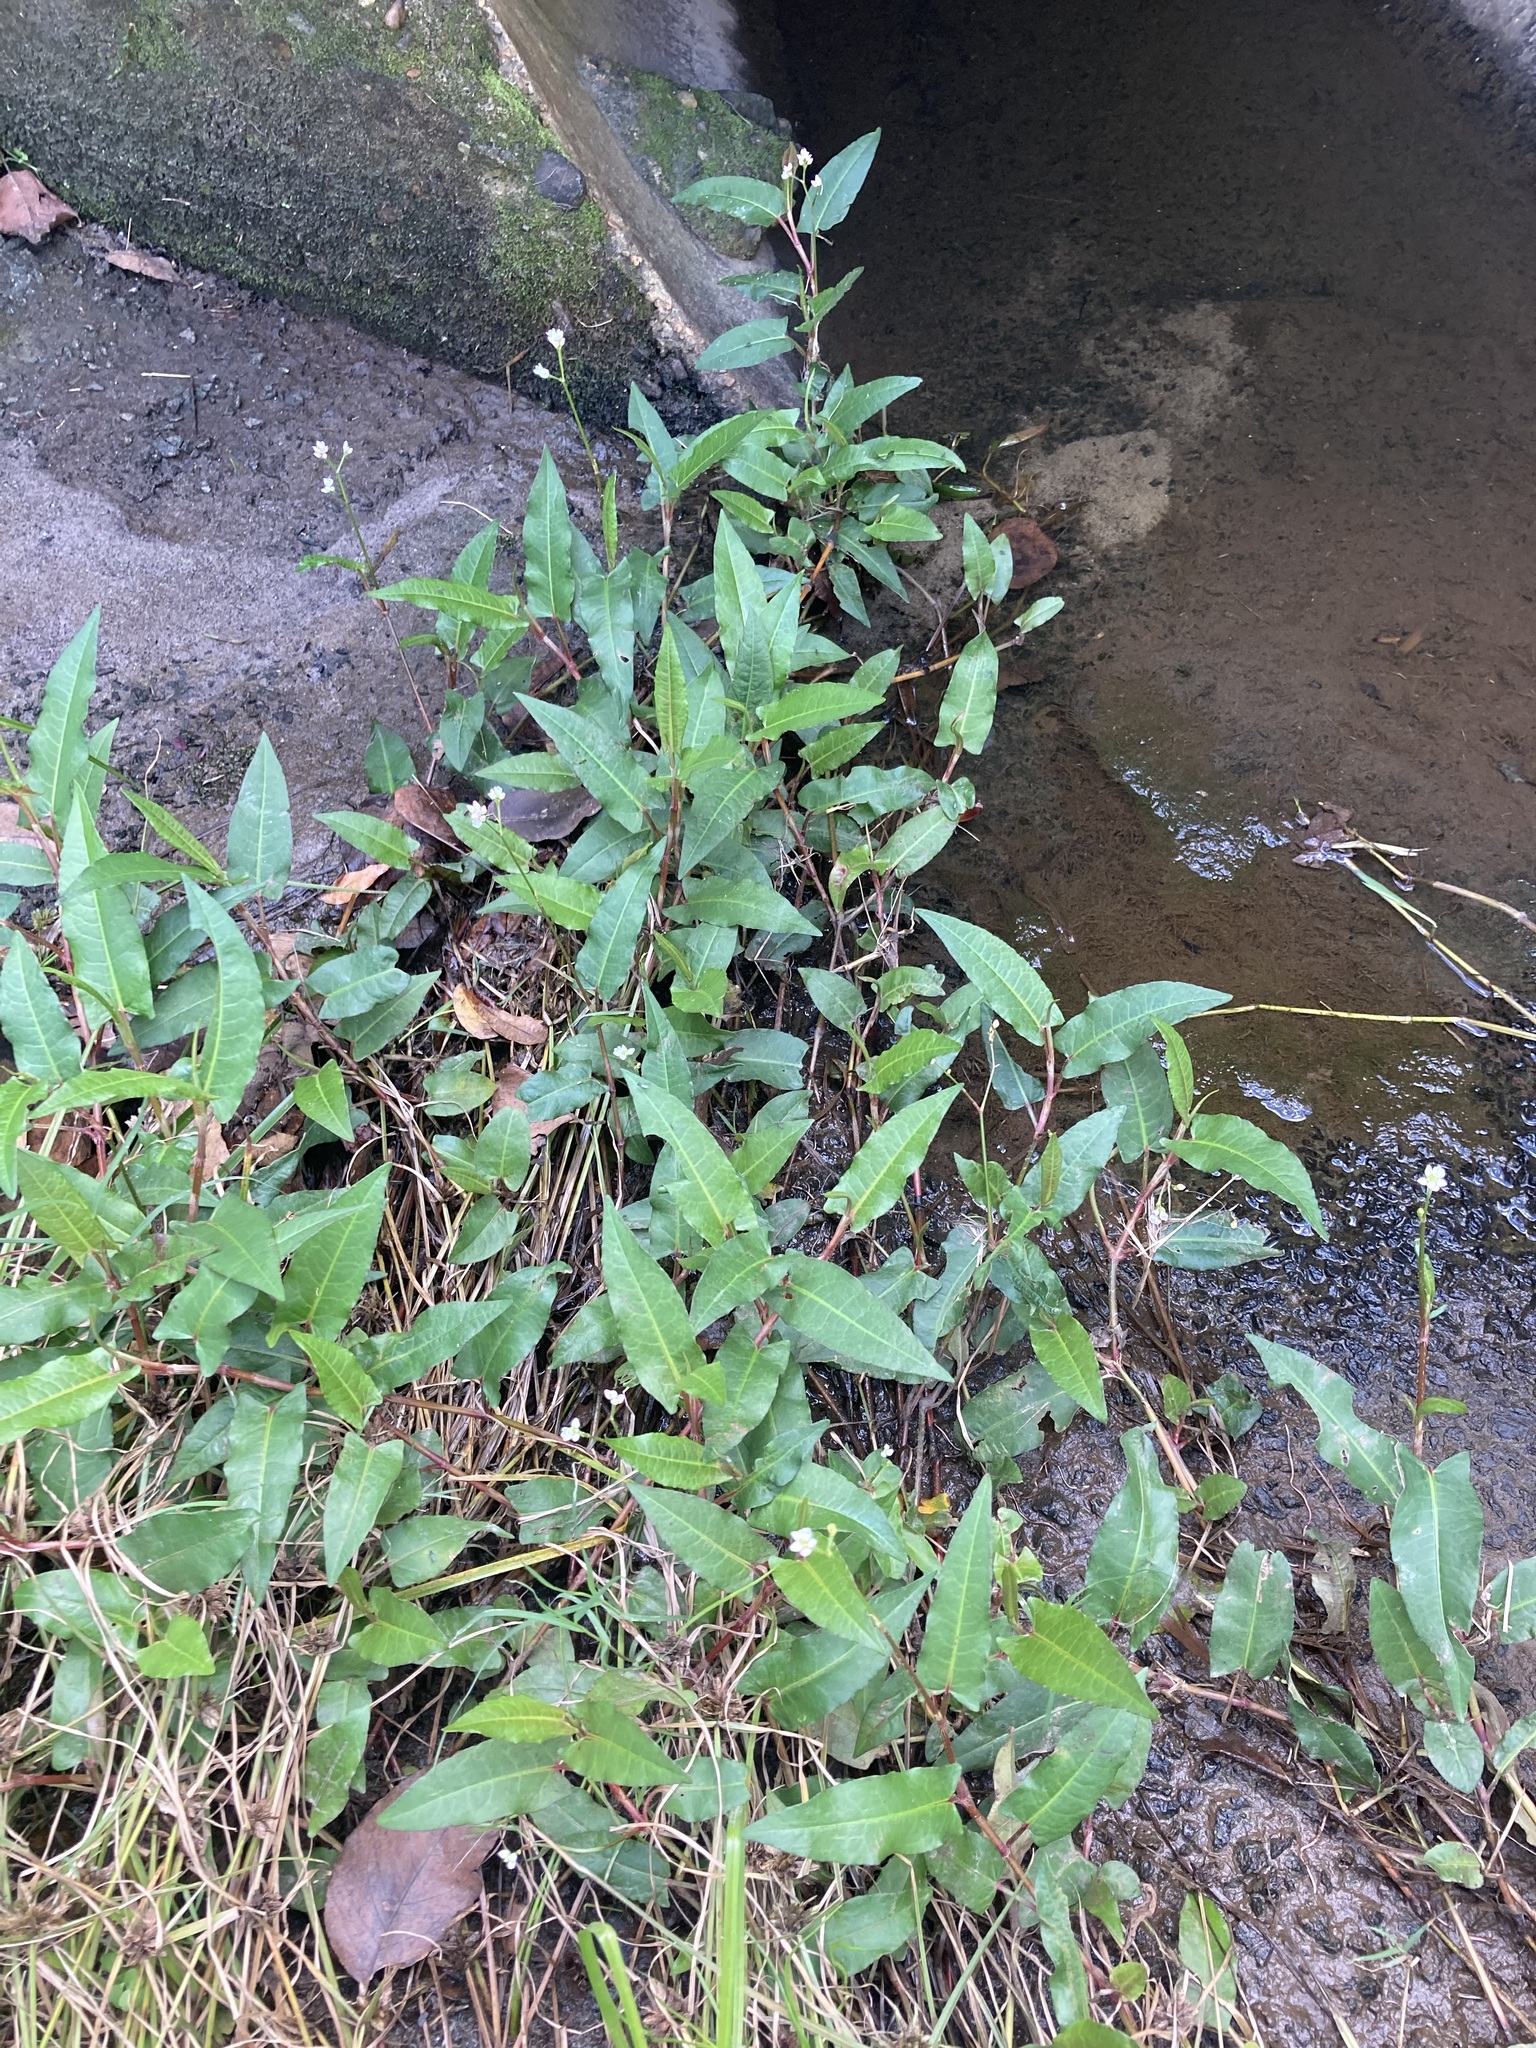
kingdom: Plantae
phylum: Tracheophyta
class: Magnoliopsida
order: Caryophyllales
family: Polygonaceae
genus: Persicaria
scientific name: Persicaria strigosa
